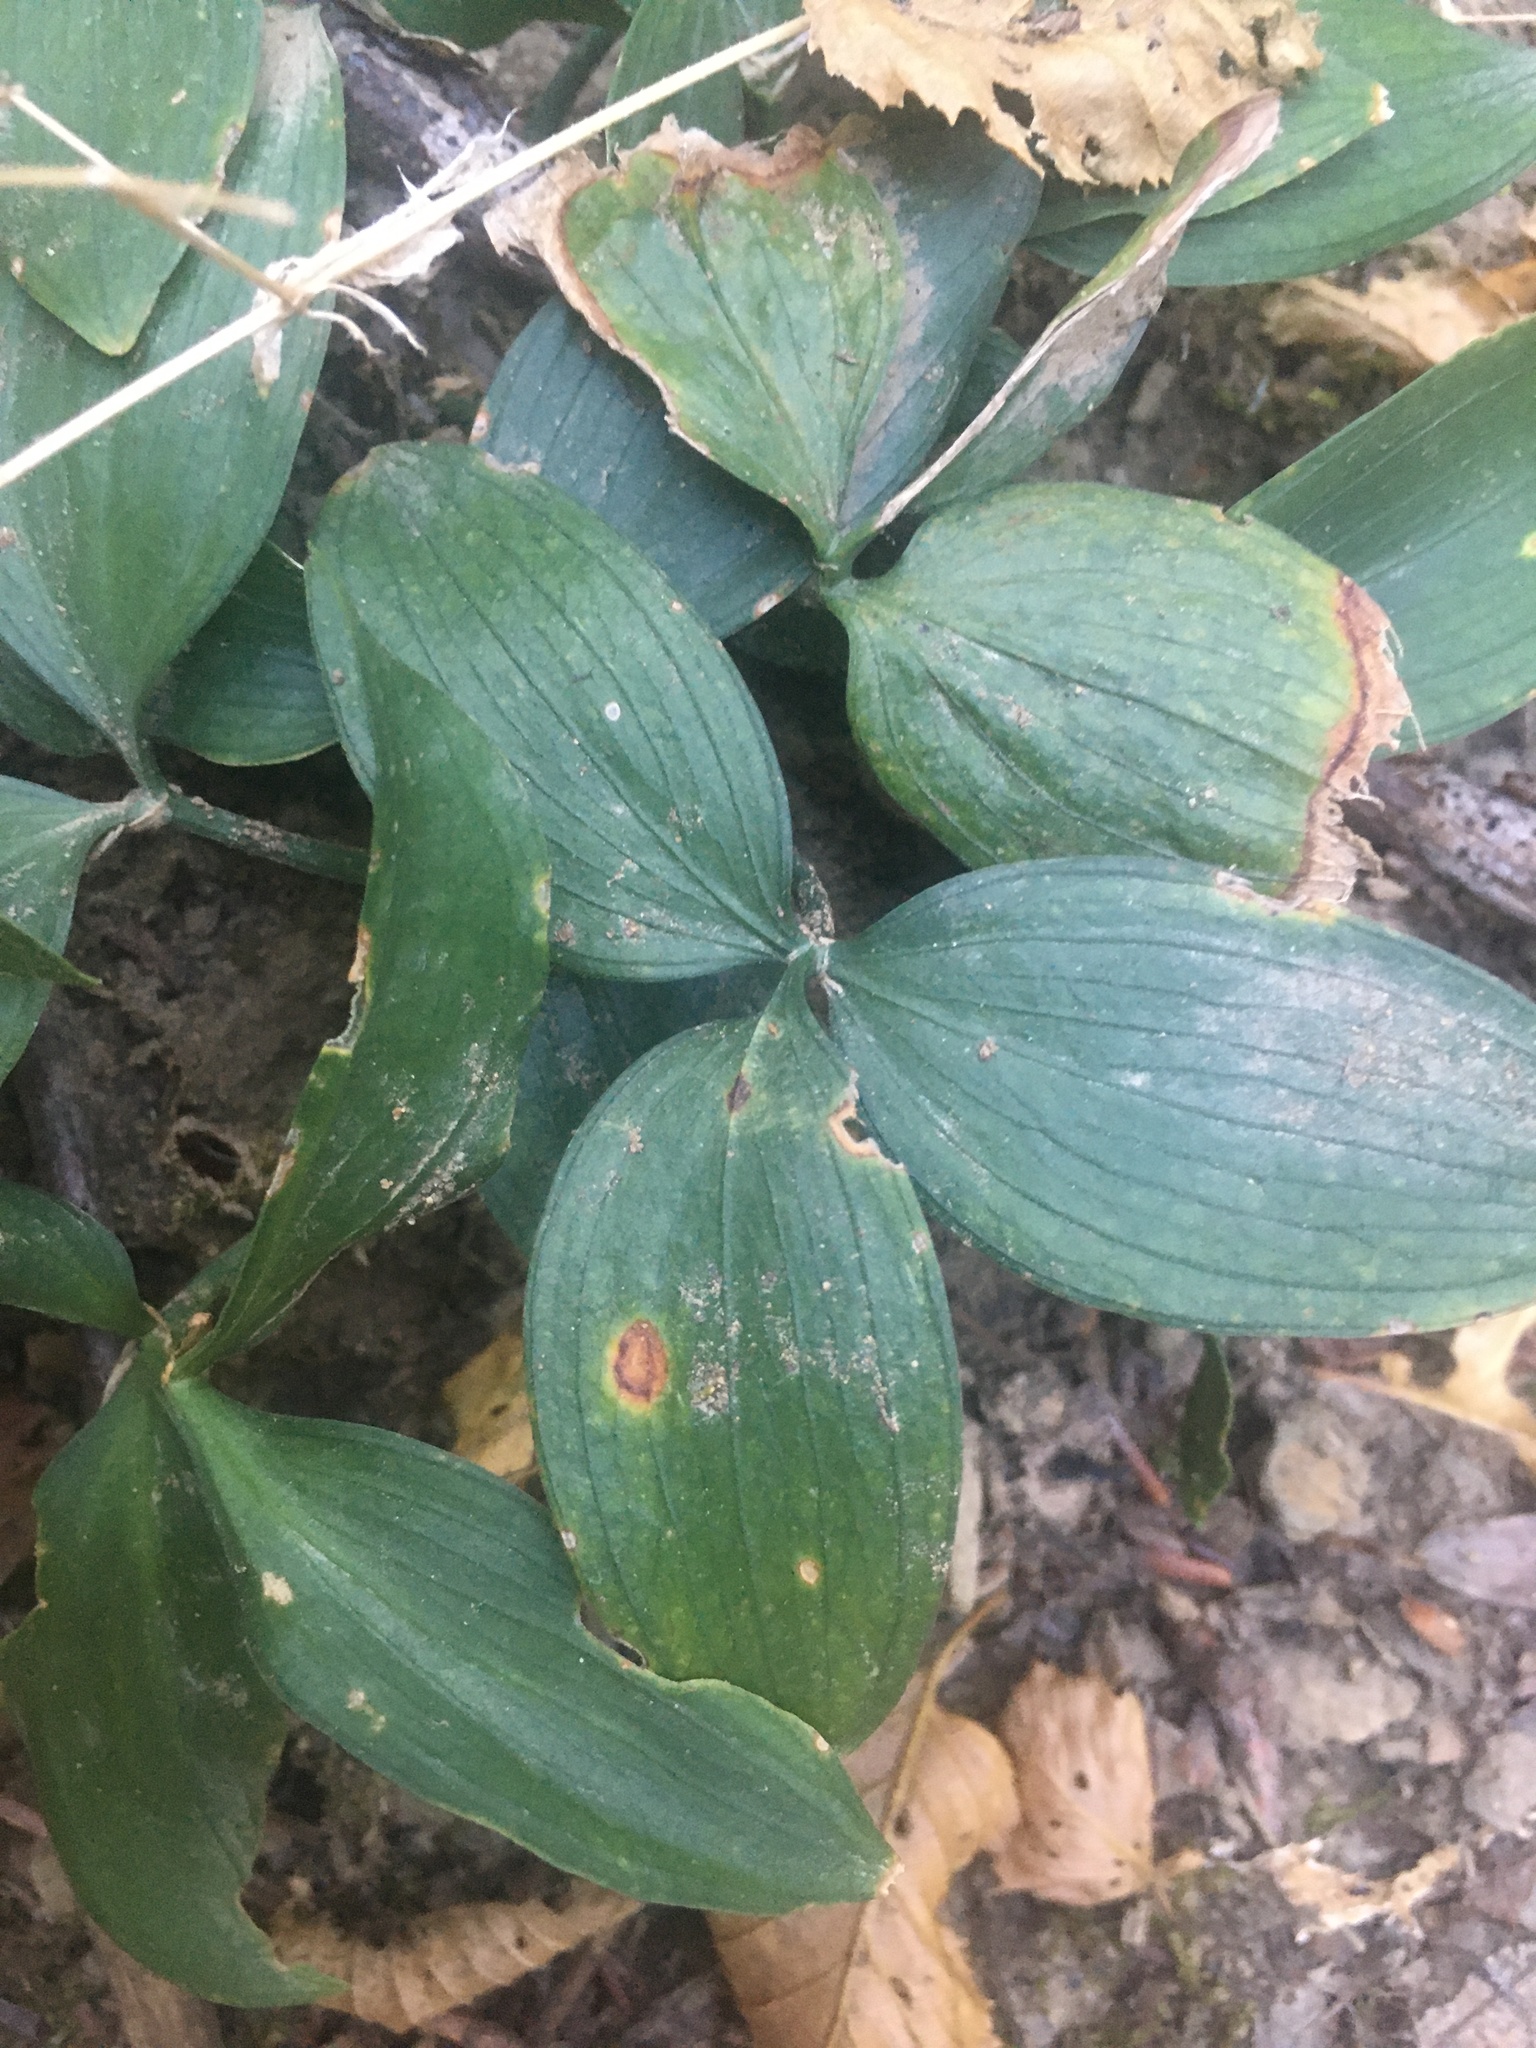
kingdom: Plantae
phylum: Tracheophyta
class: Liliopsida
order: Asparagales
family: Asparagaceae
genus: Ruscus
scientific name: Ruscus hypoglossum
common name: Spineless butcher's-broom
